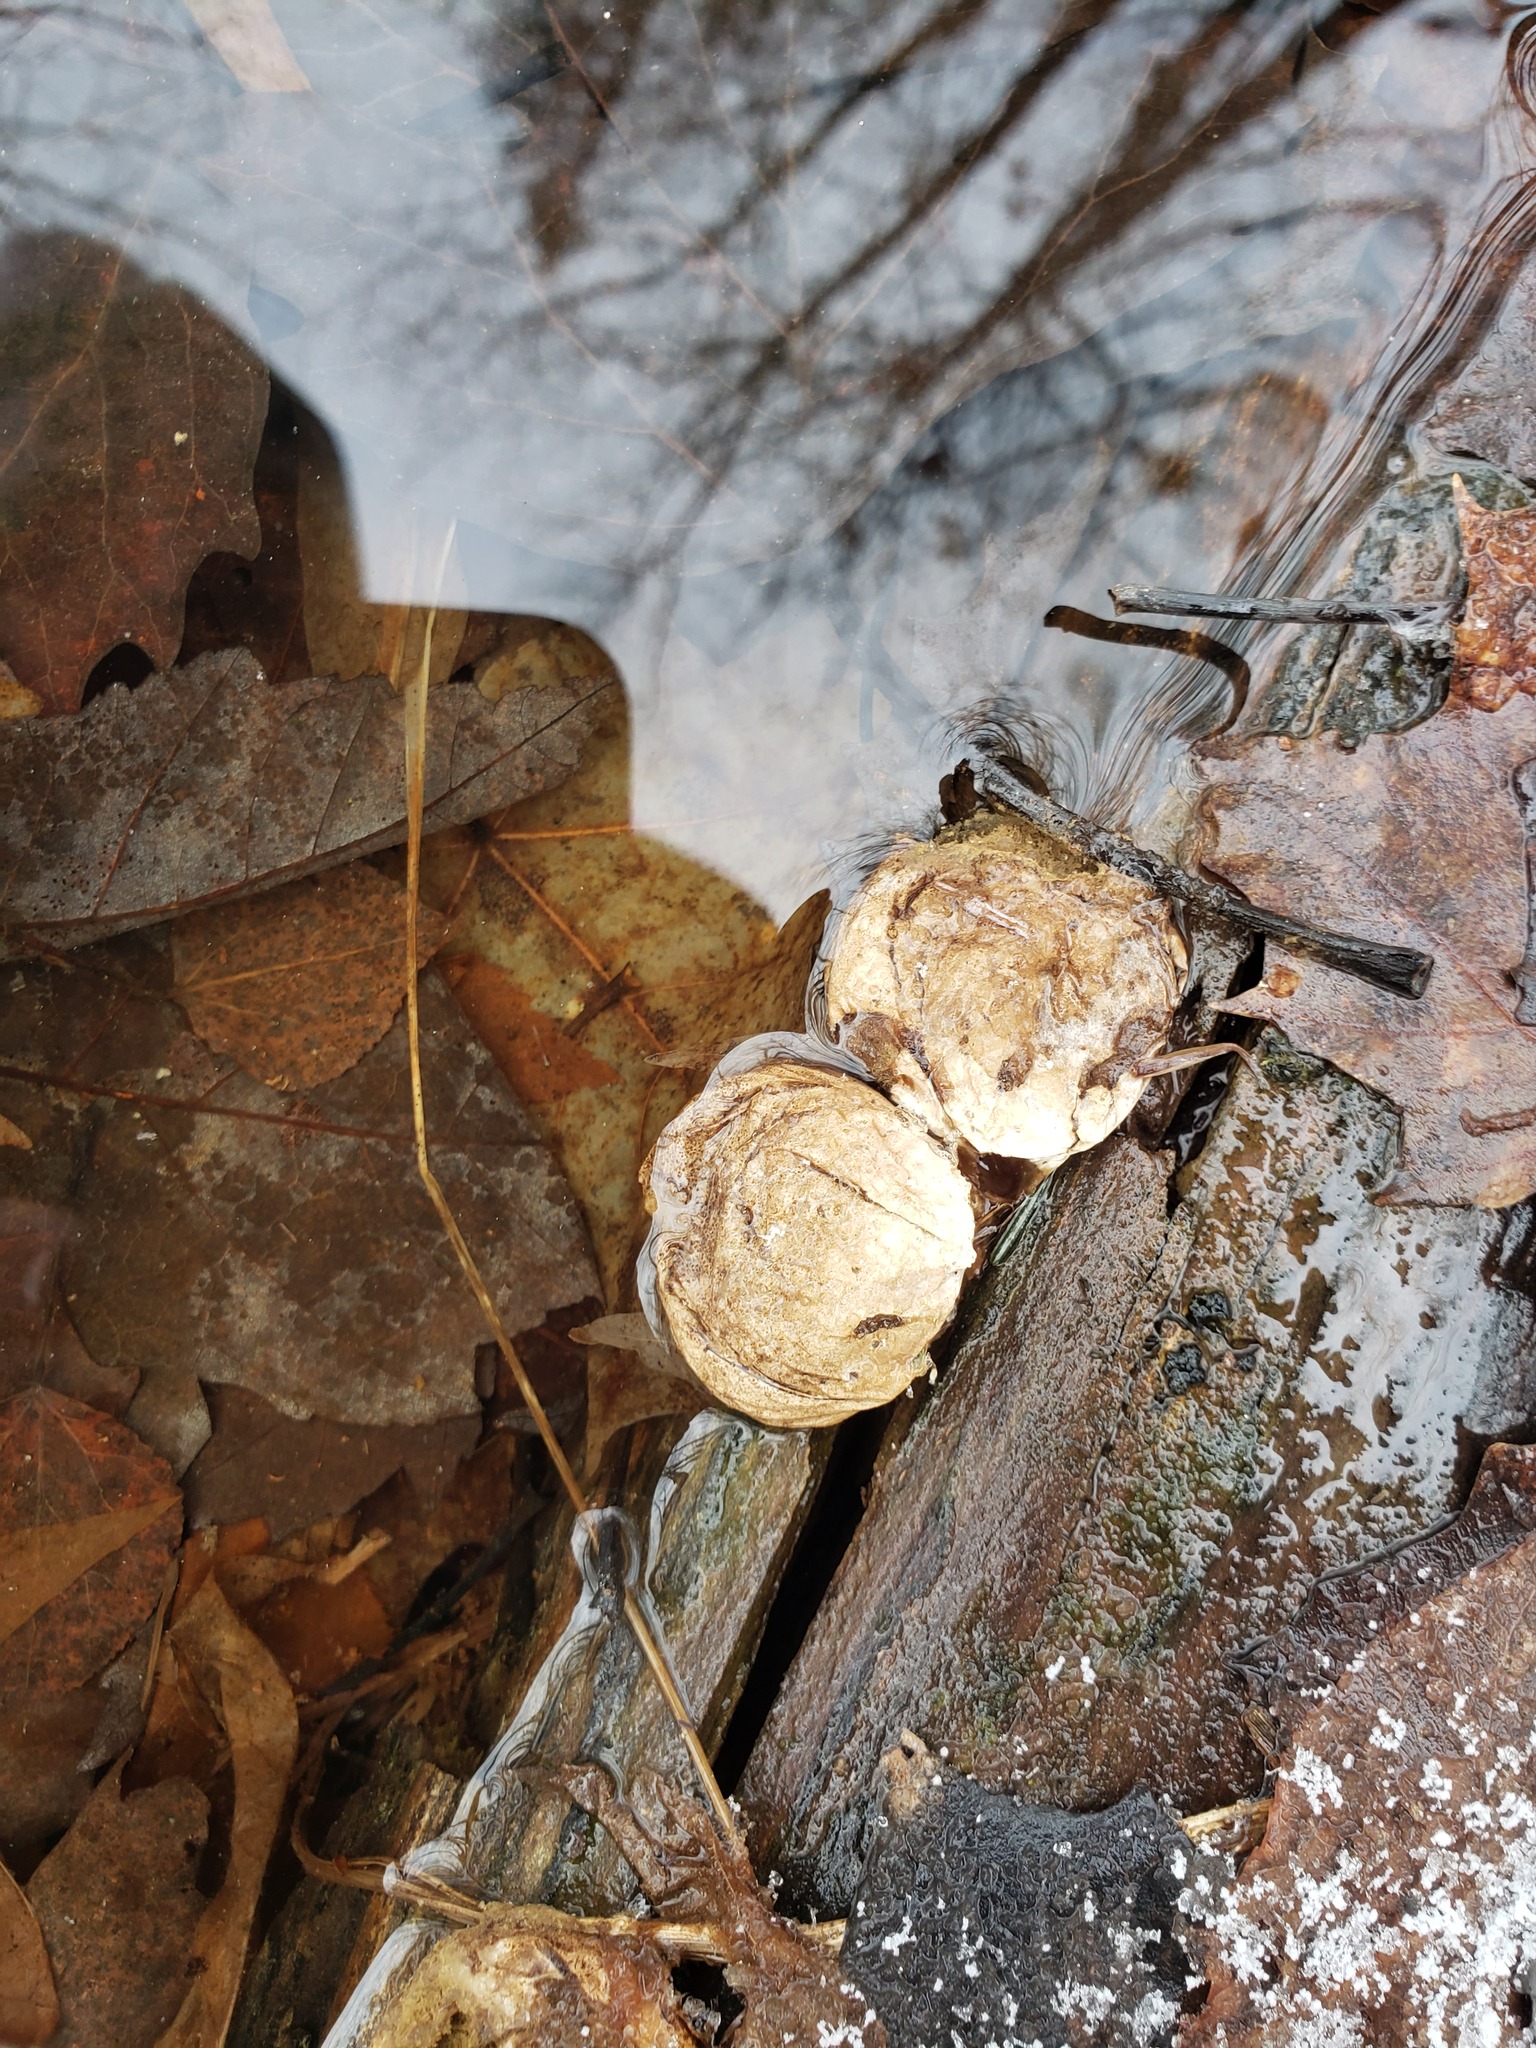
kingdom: Fungi
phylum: Basidiomycota
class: Agaricomycetes
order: Agaricales
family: Lycoperdaceae
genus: Apioperdon
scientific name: Apioperdon pyriforme
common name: Pear-shaped puffball
